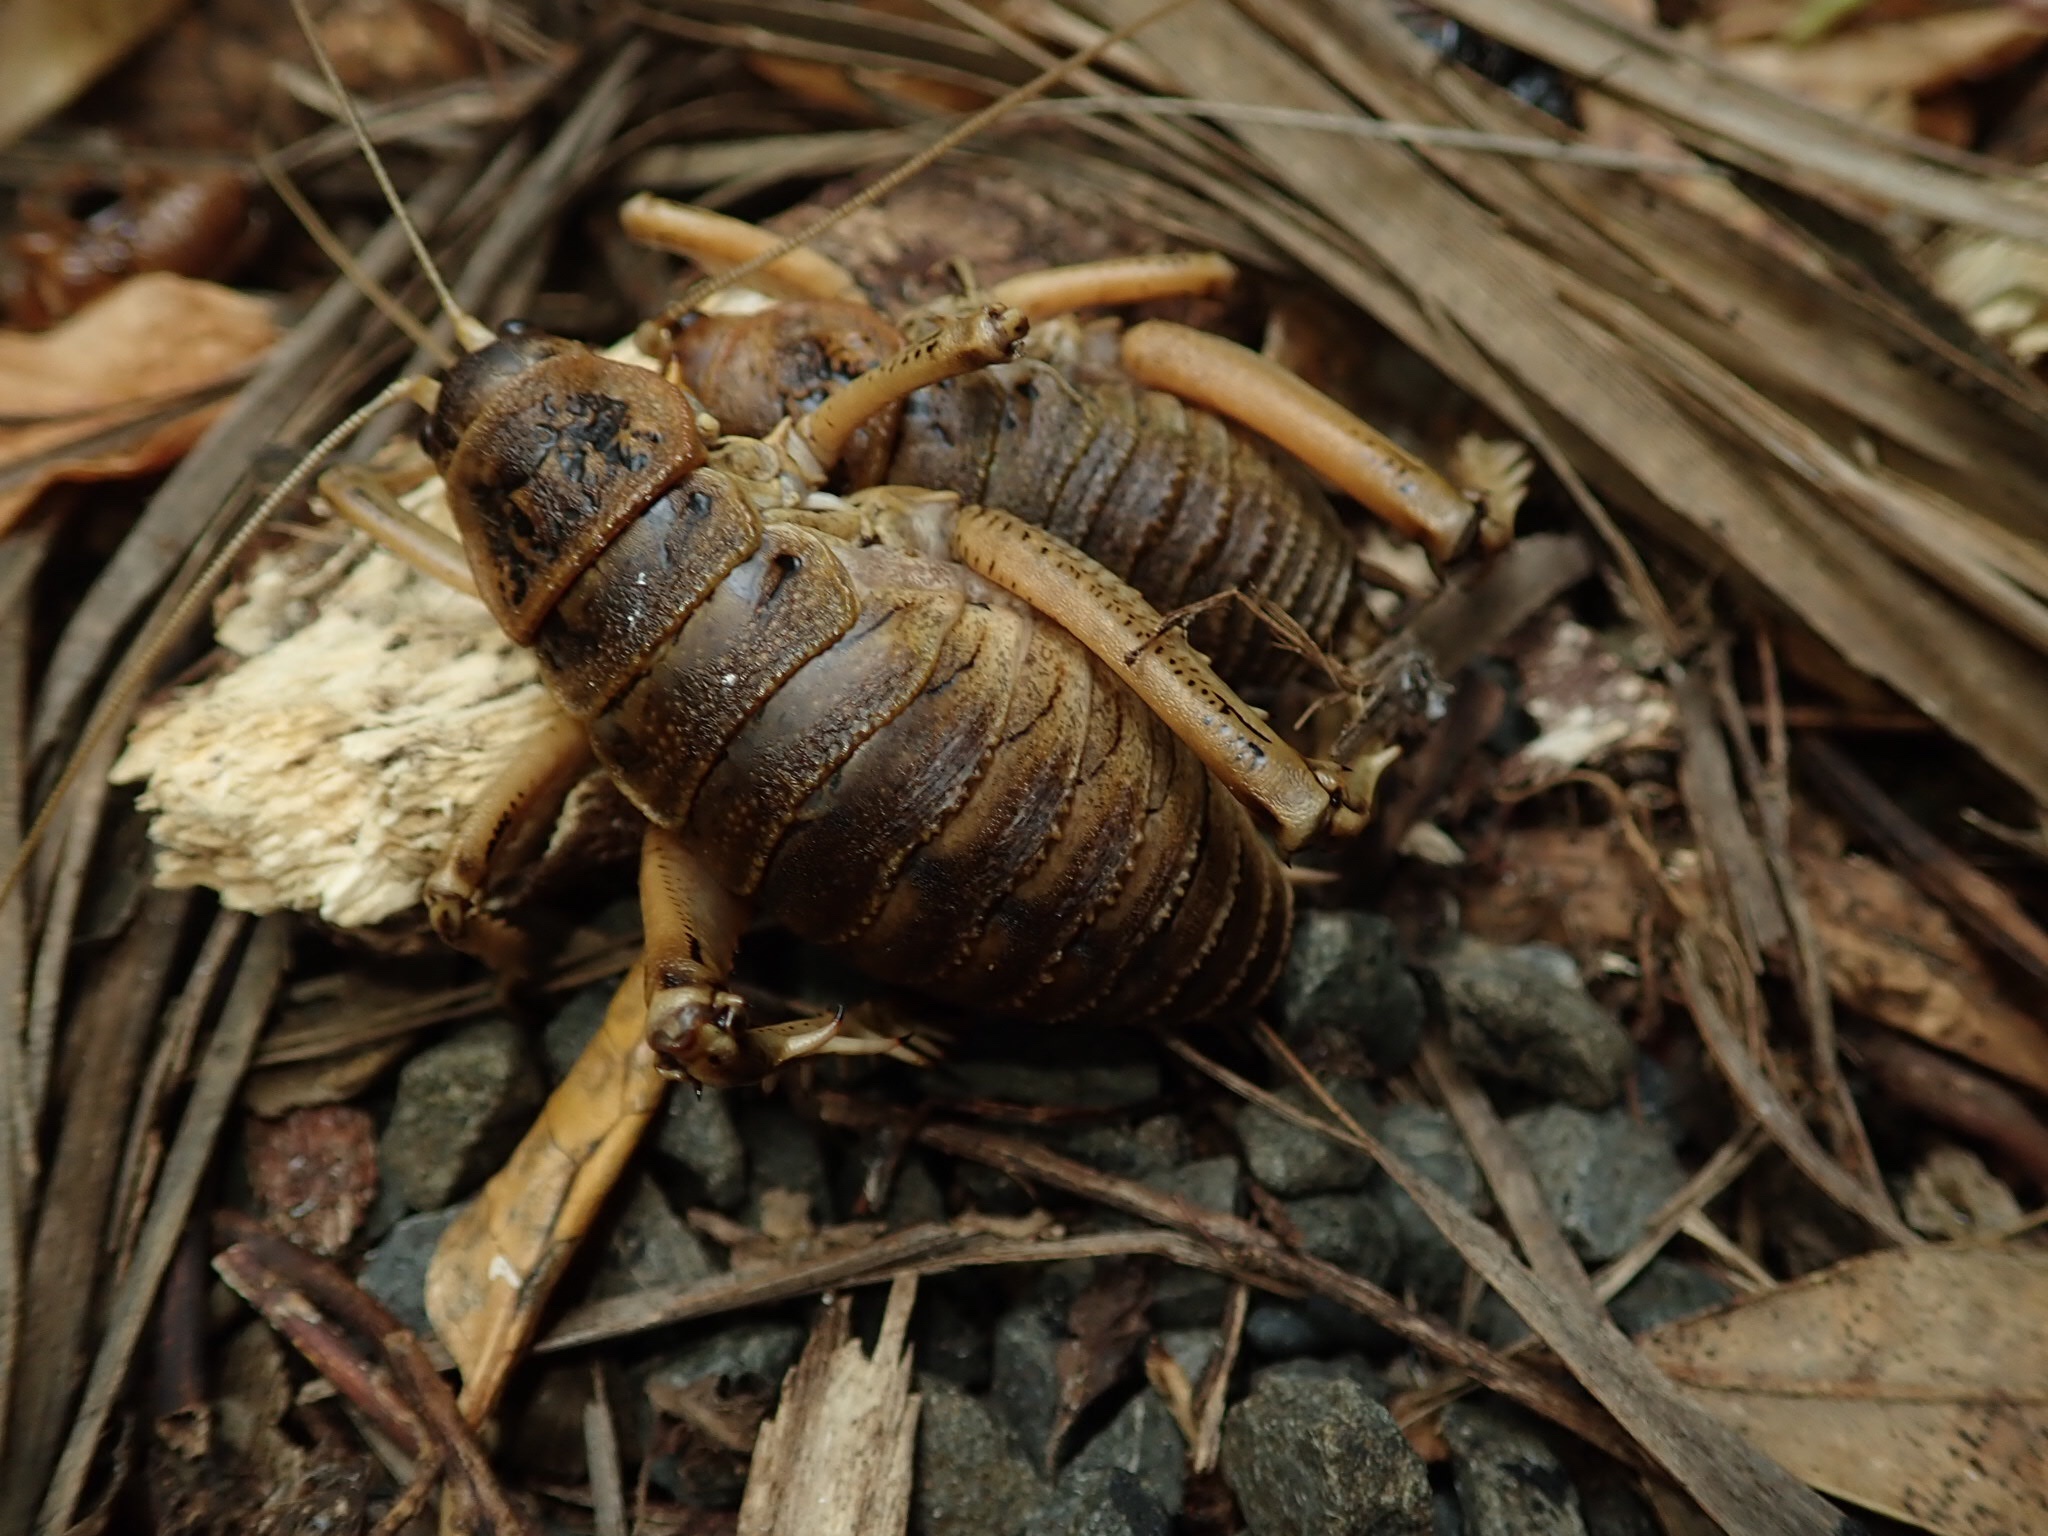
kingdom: Animalia
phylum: Arthropoda
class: Insecta
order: Orthoptera
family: Anostostomatidae
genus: Deinacrida
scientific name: Deinacrida rugosa
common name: Stephens island weta
